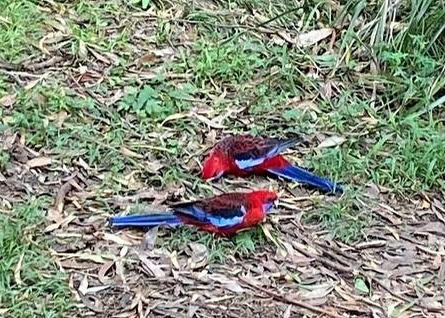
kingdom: Animalia
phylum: Chordata
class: Aves
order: Psittaciformes
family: Psittacidae
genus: Platycercus
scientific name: Platycercus elegans
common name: Crimson rosella
